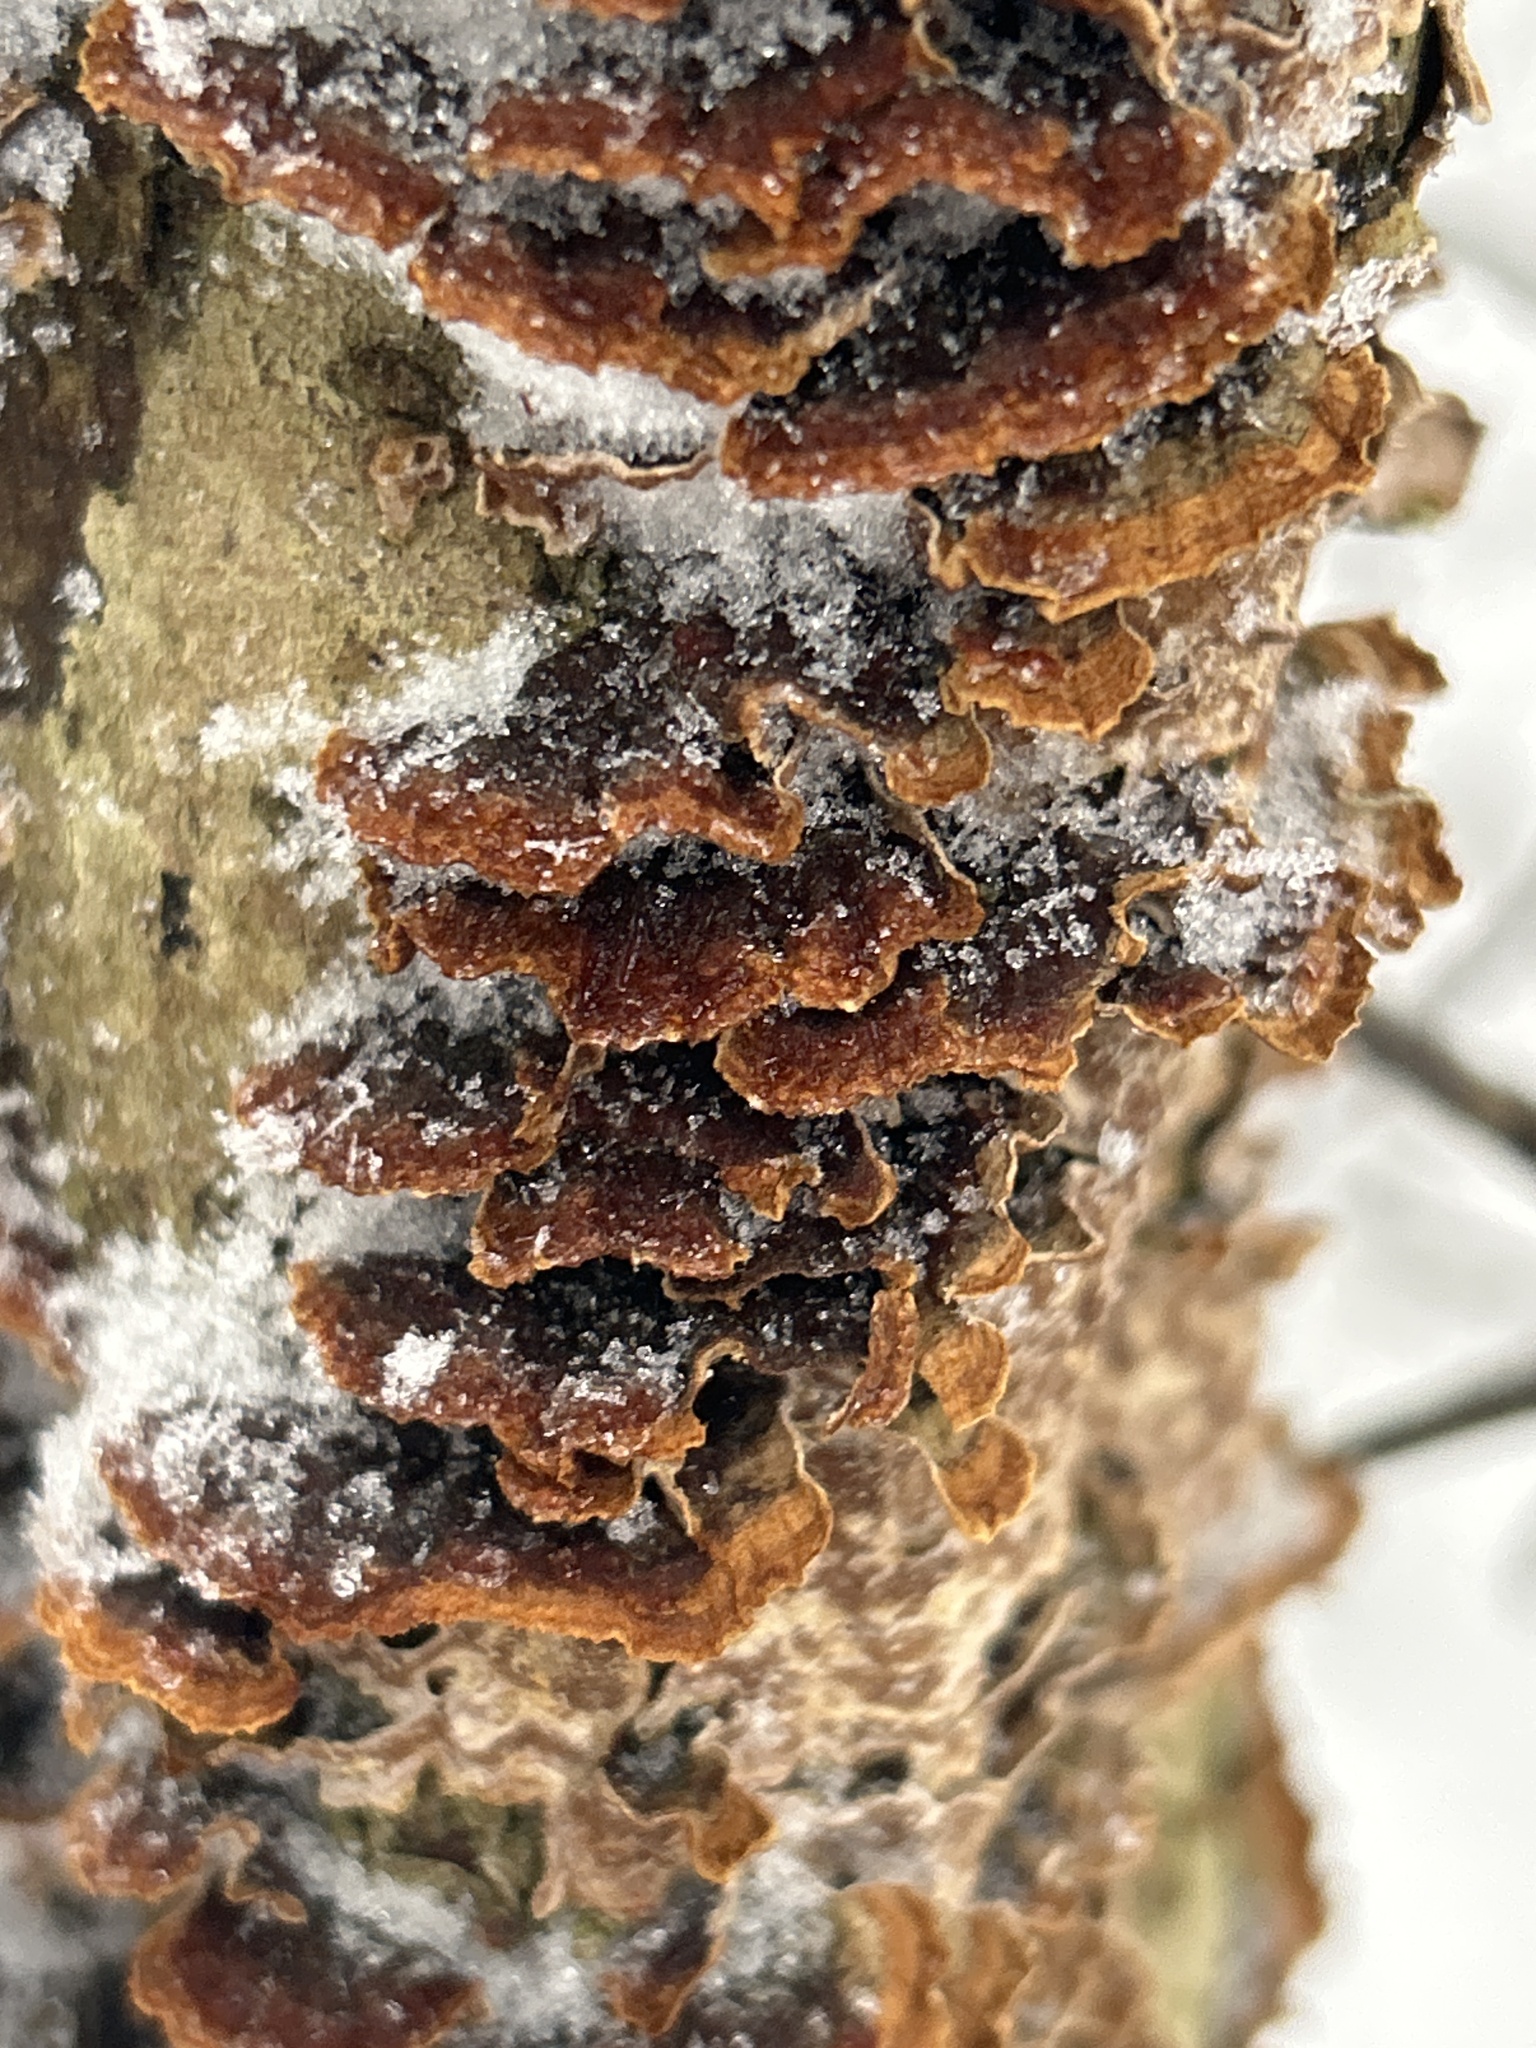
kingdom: Fungi
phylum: Basidiomycota
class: Agaricomycetes
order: Hymenochaetales
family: Hymenochaetaceae
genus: Hydnoporia
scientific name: Hydnoporia tabacina
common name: Willow glue
